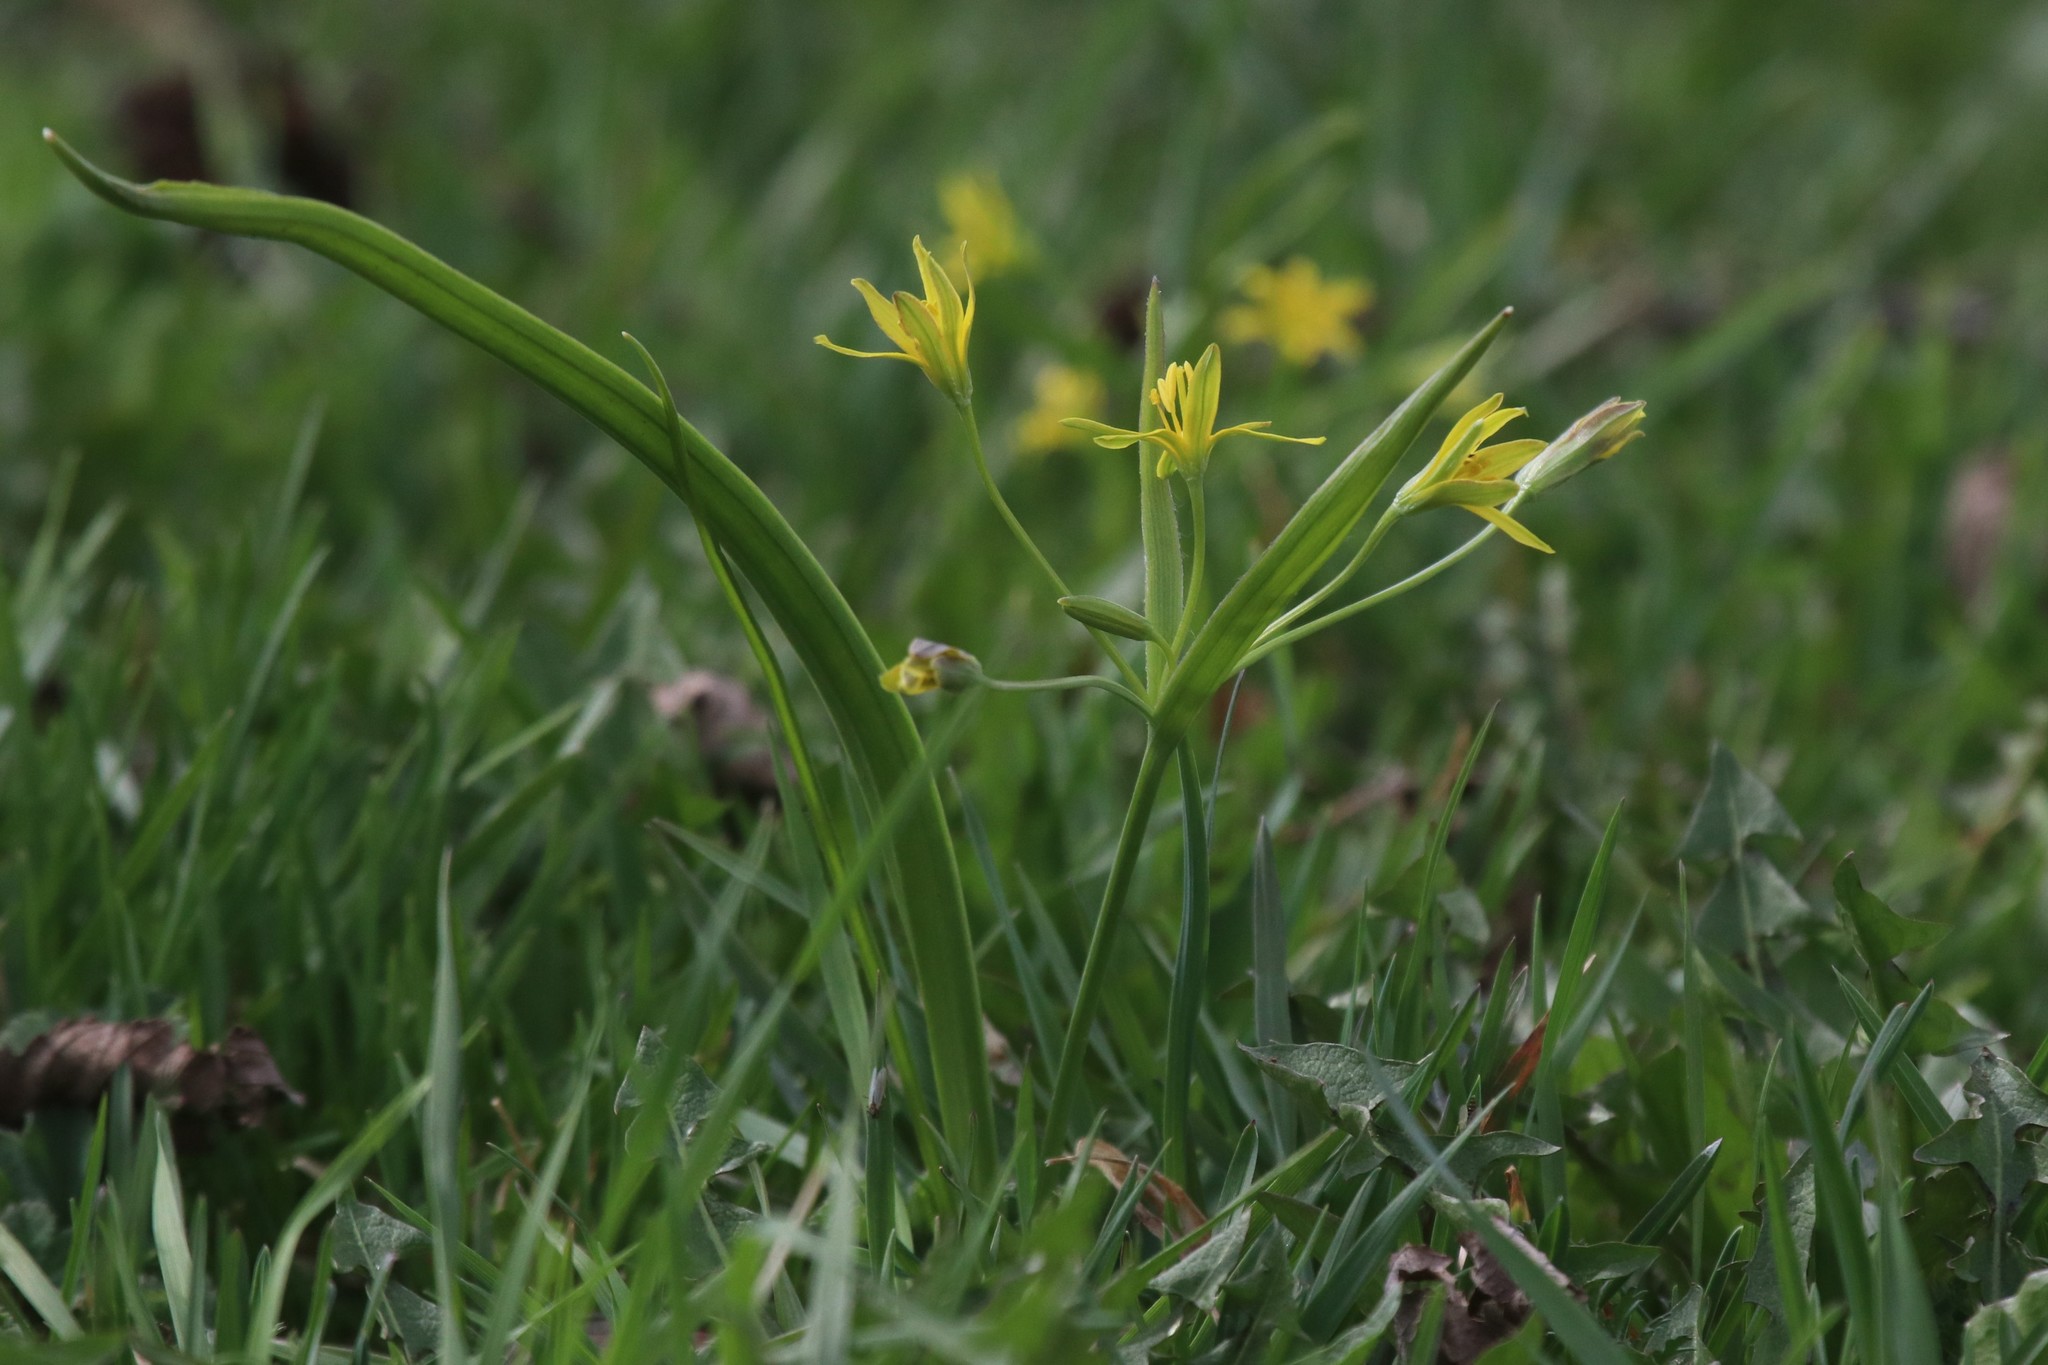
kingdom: Plantae
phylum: Tracheophyta
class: Liliopsida
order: Liliales
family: Liliaceae
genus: Gagea
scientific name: Gagea lutea
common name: Yellow star-of-bethlehem
